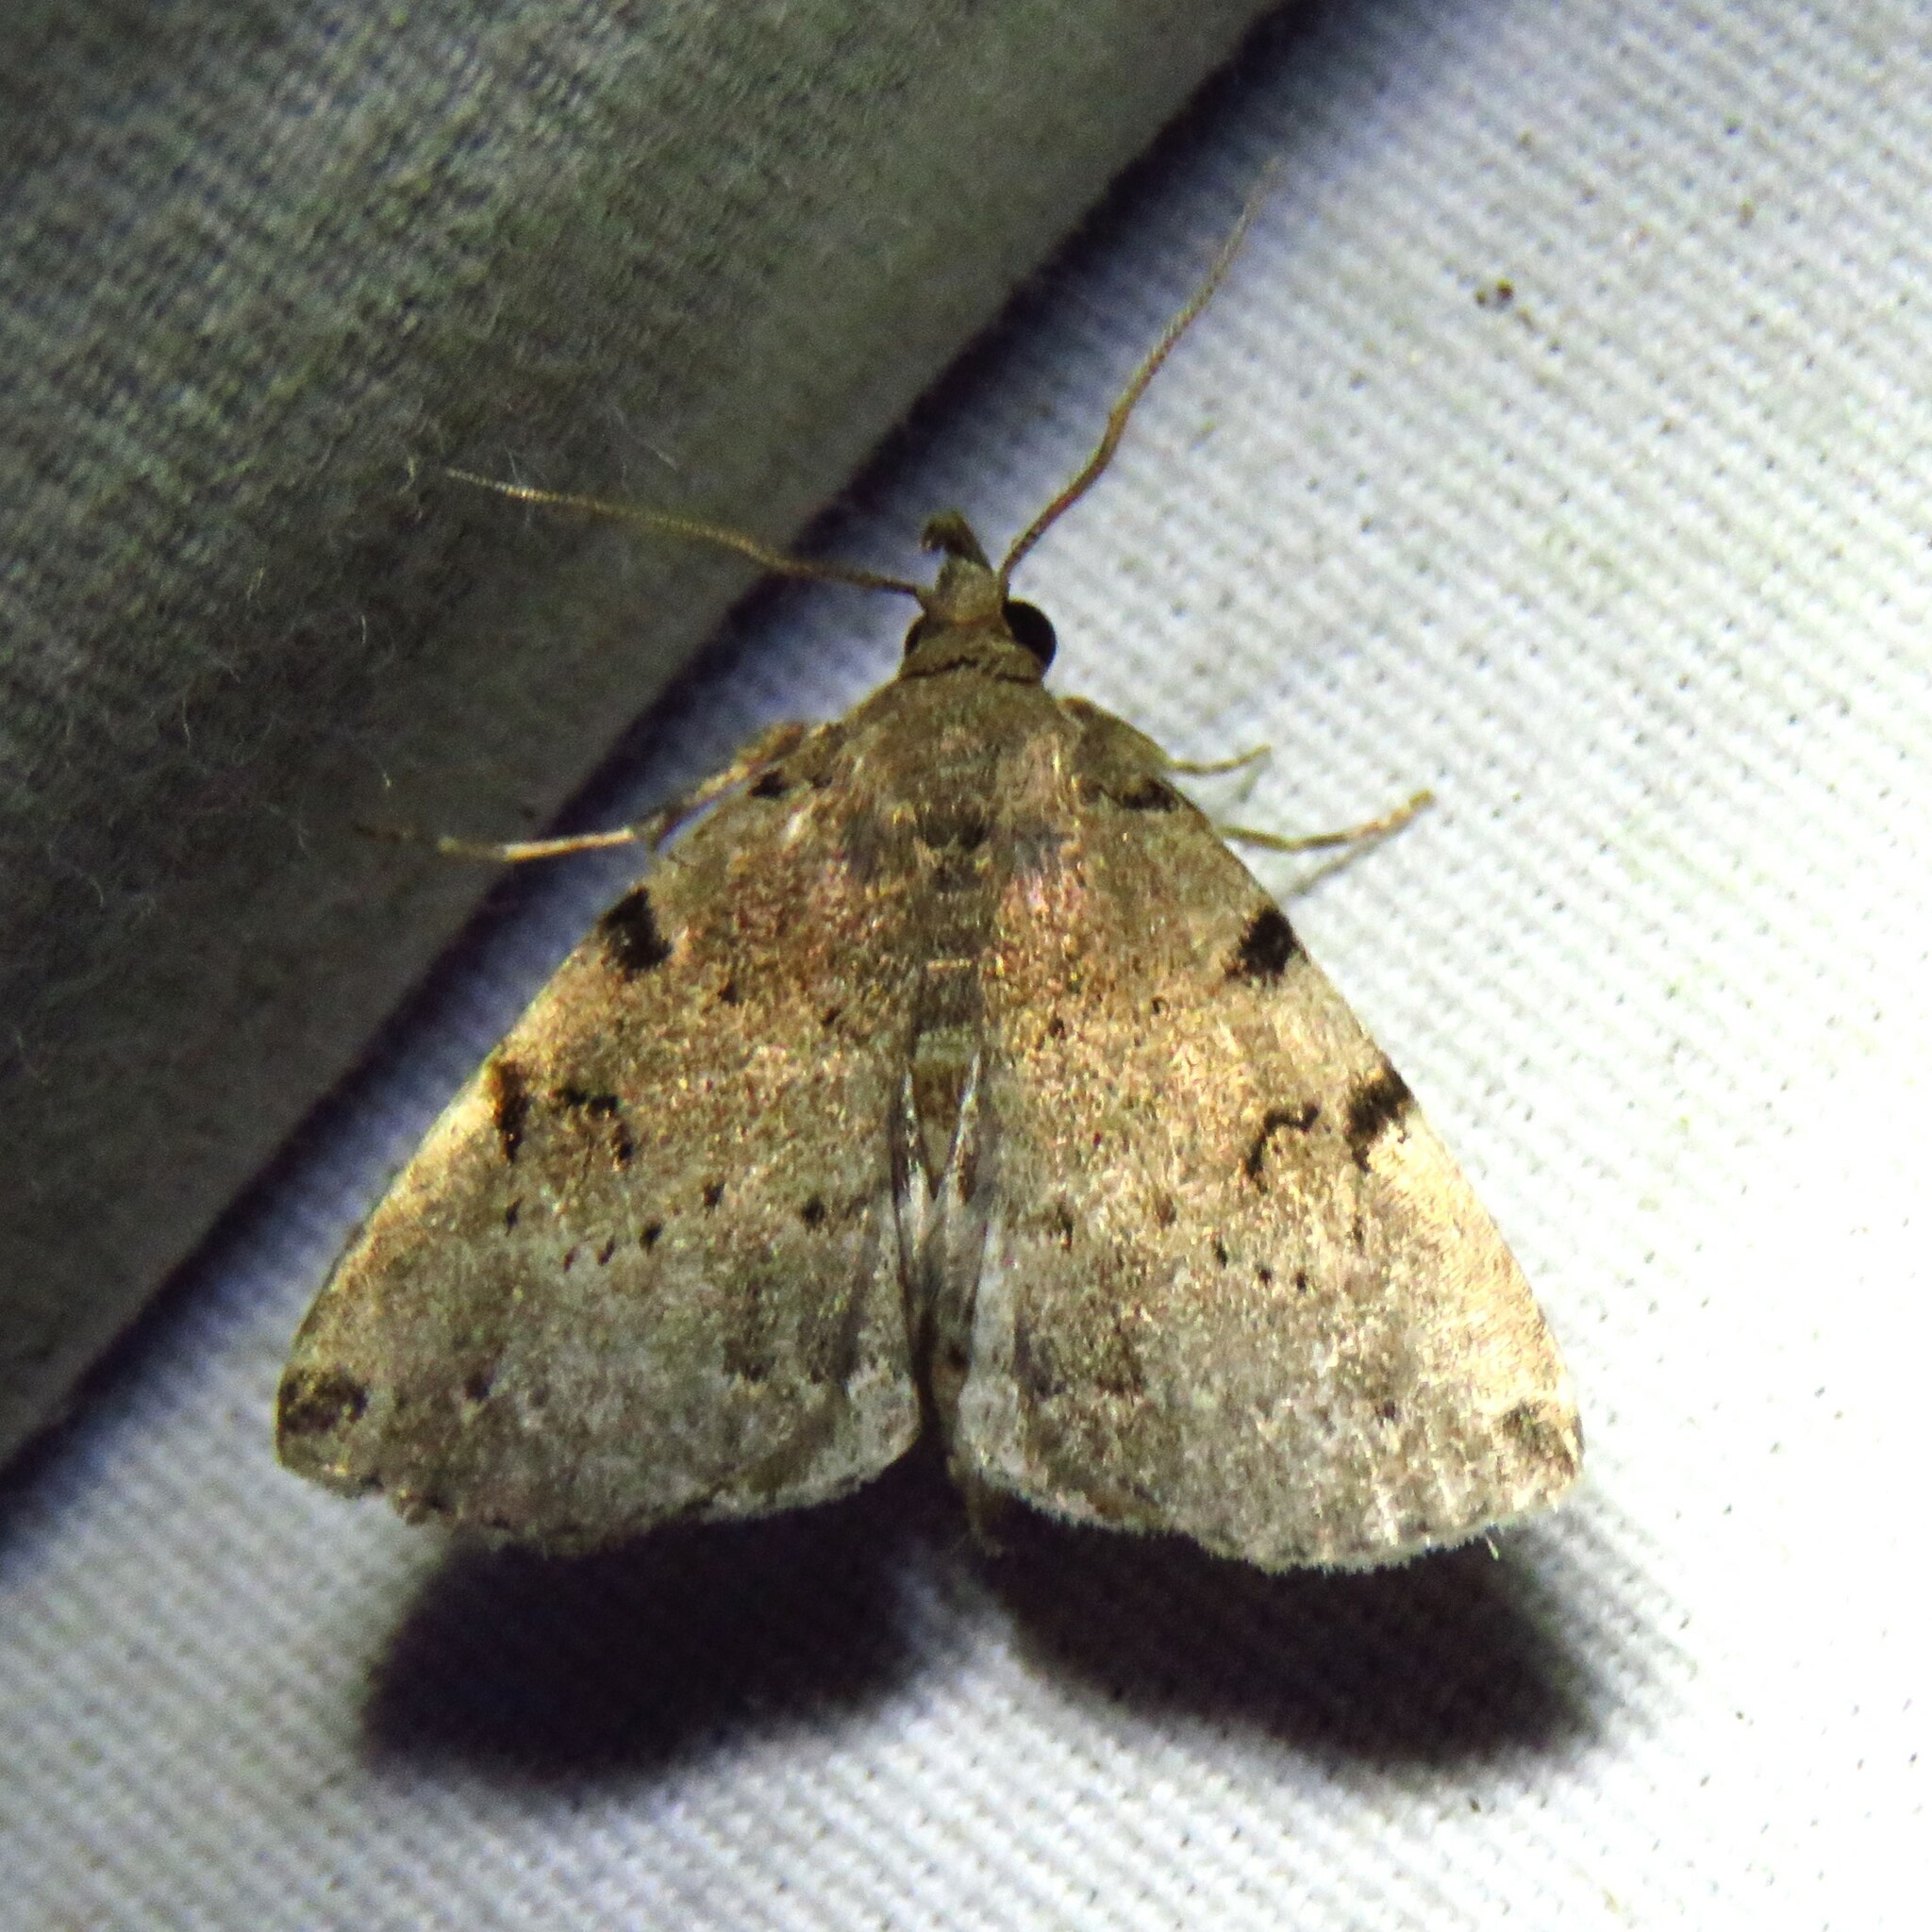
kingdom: Animalia
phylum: Arthropoda
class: Insecta
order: Lepidoptera
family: Erebidae
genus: Zanclognatha
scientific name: Zanclognatha lituralis
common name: Lettered fan-foot
